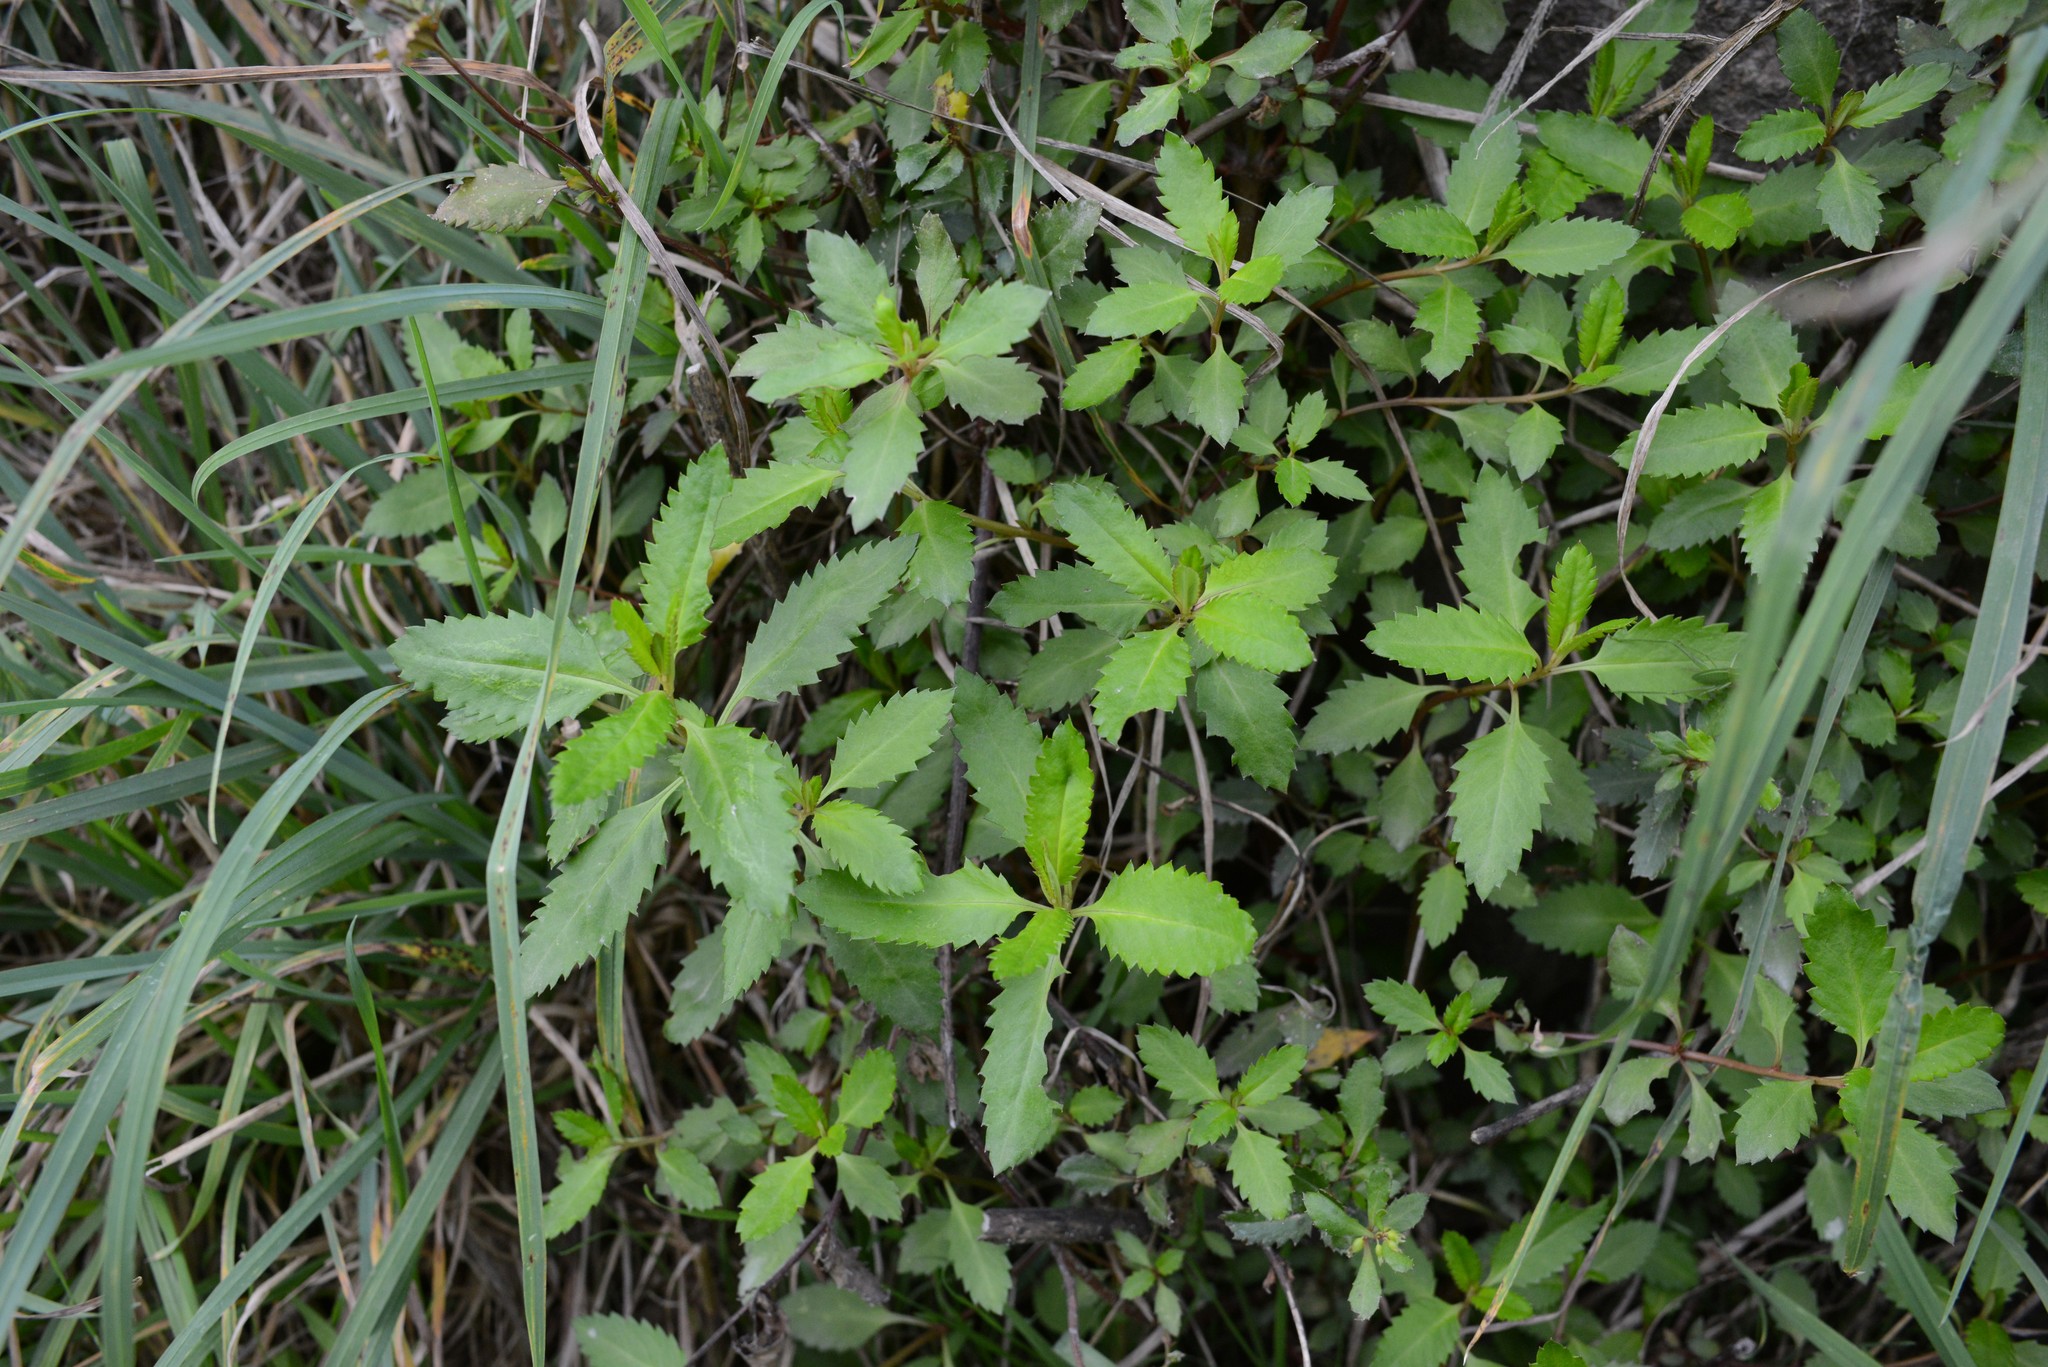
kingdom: Plantae
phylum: Tracheophyta
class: Magnoliopsida
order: Saxifragales
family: Haloragaceae
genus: Haloragis
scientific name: Haloragis erecta
